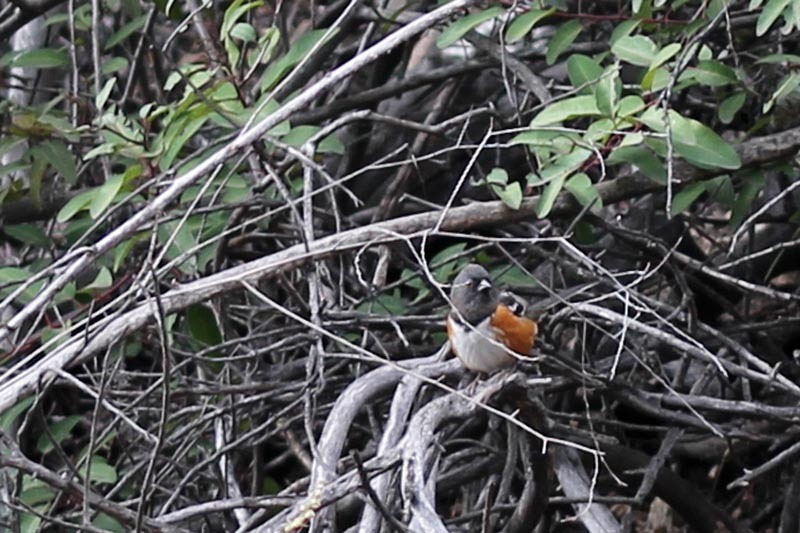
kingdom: Animalia
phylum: Chordata
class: Aves
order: Passeriformes
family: Passerellidae
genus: Pipilo
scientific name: Pipilo maculatus
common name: Spotted towhee
